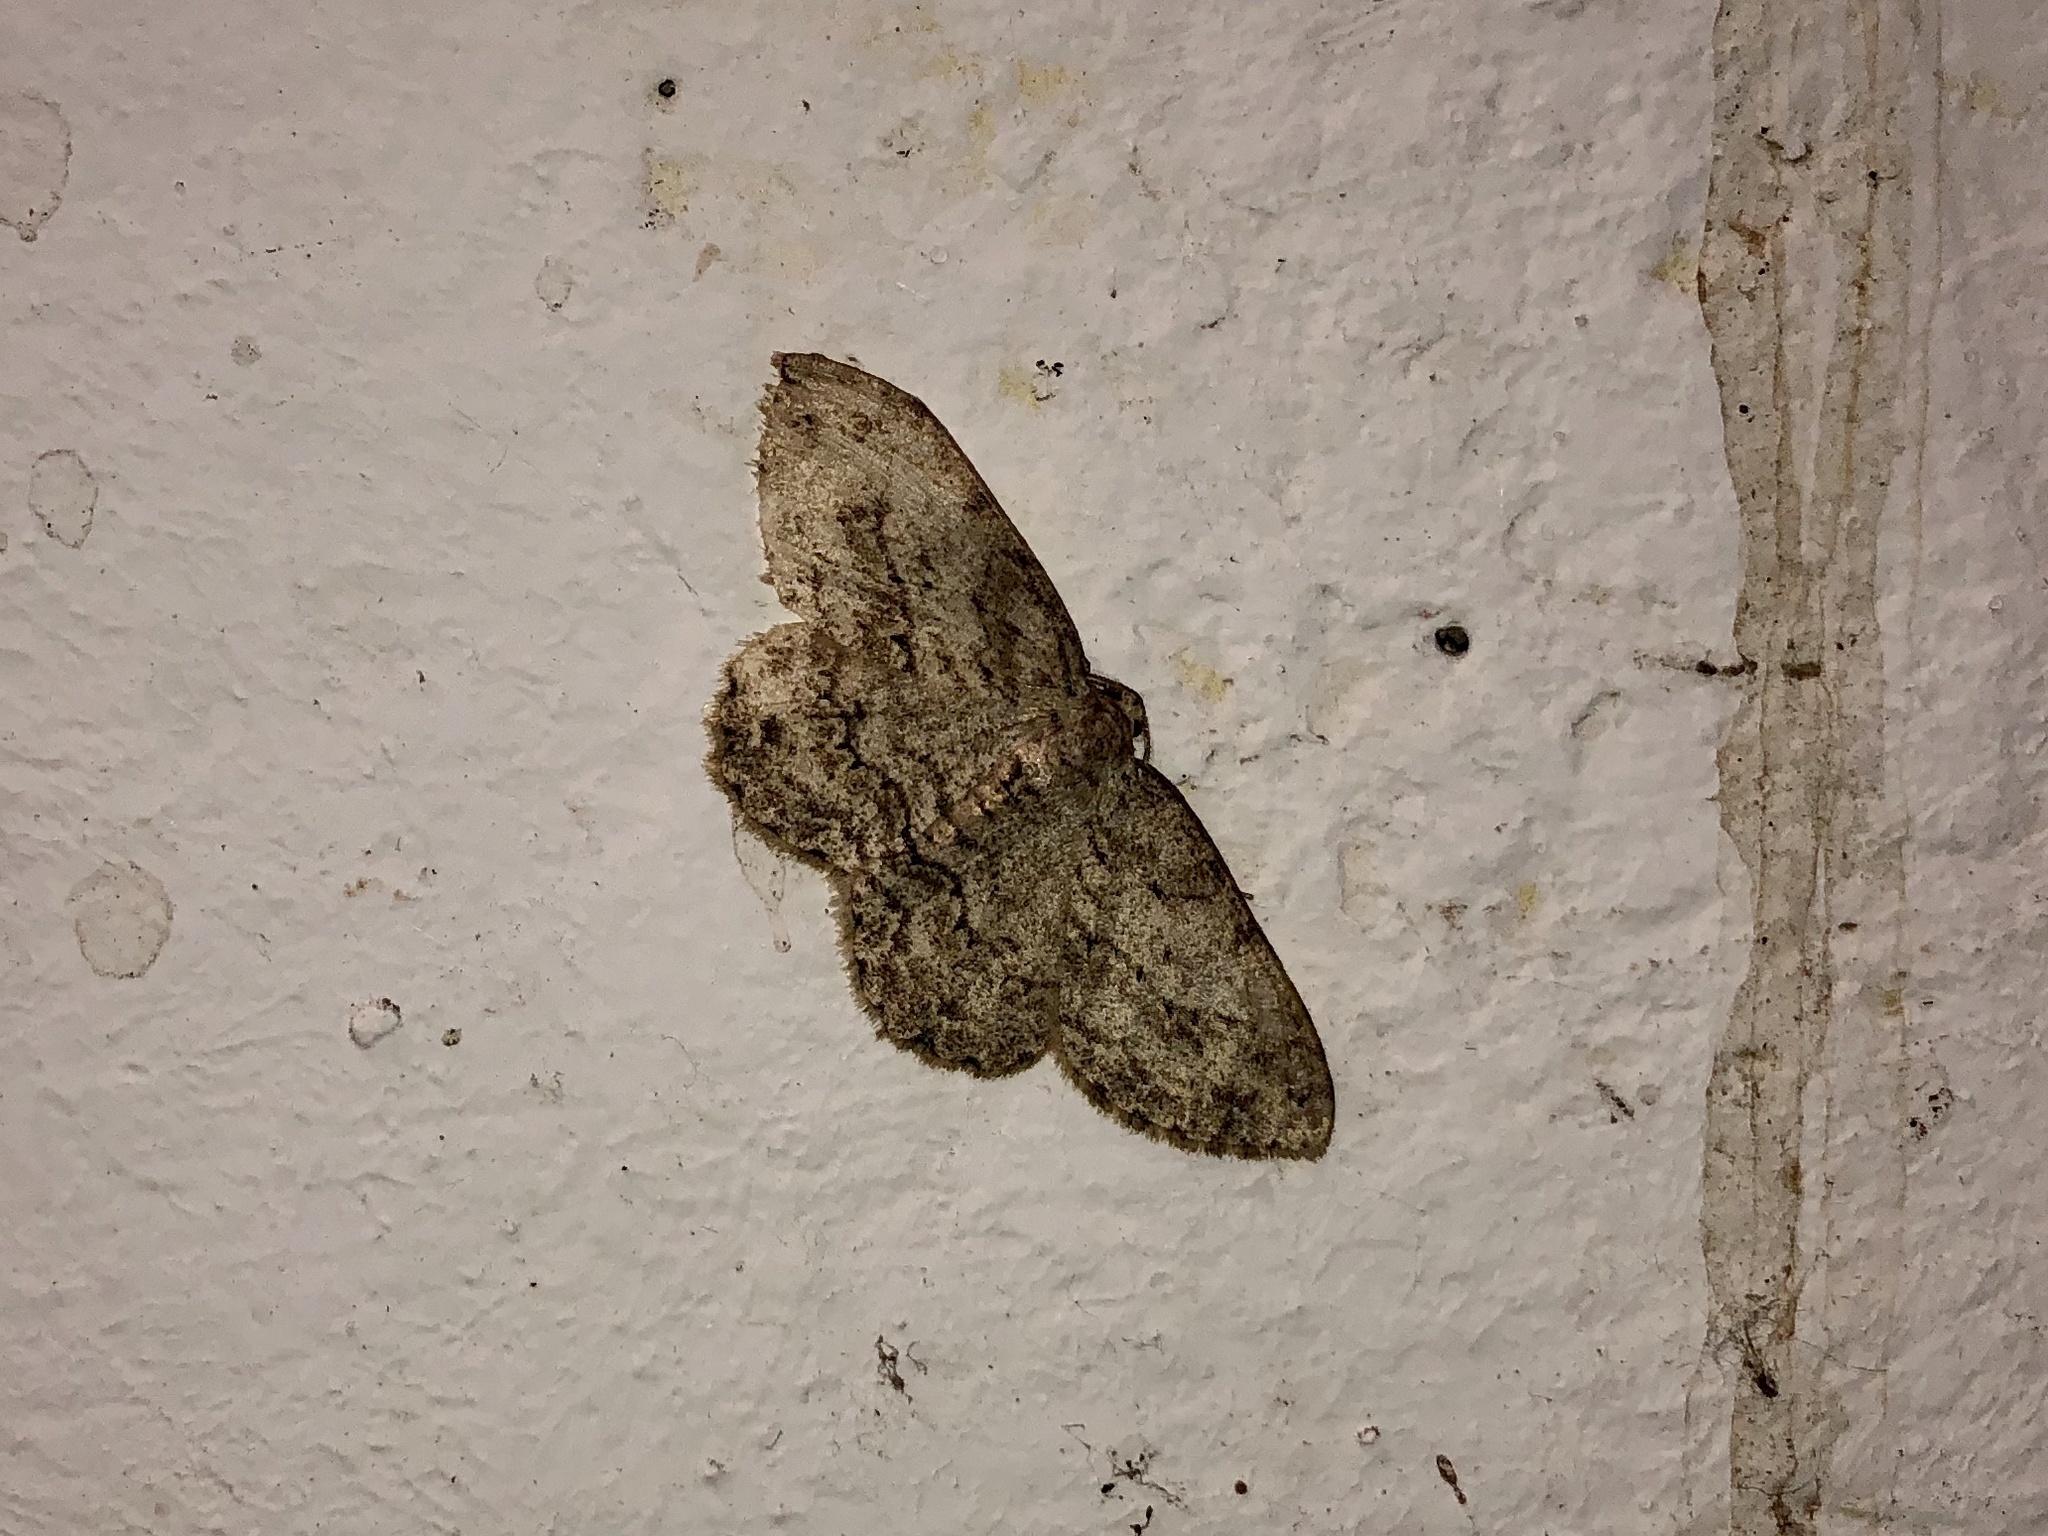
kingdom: Animalia
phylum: Arthropoda
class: Insecta
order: Lepidoptera
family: Geometridae
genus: Ectropis
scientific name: Ectropis crepuscularia
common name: Engrailed
